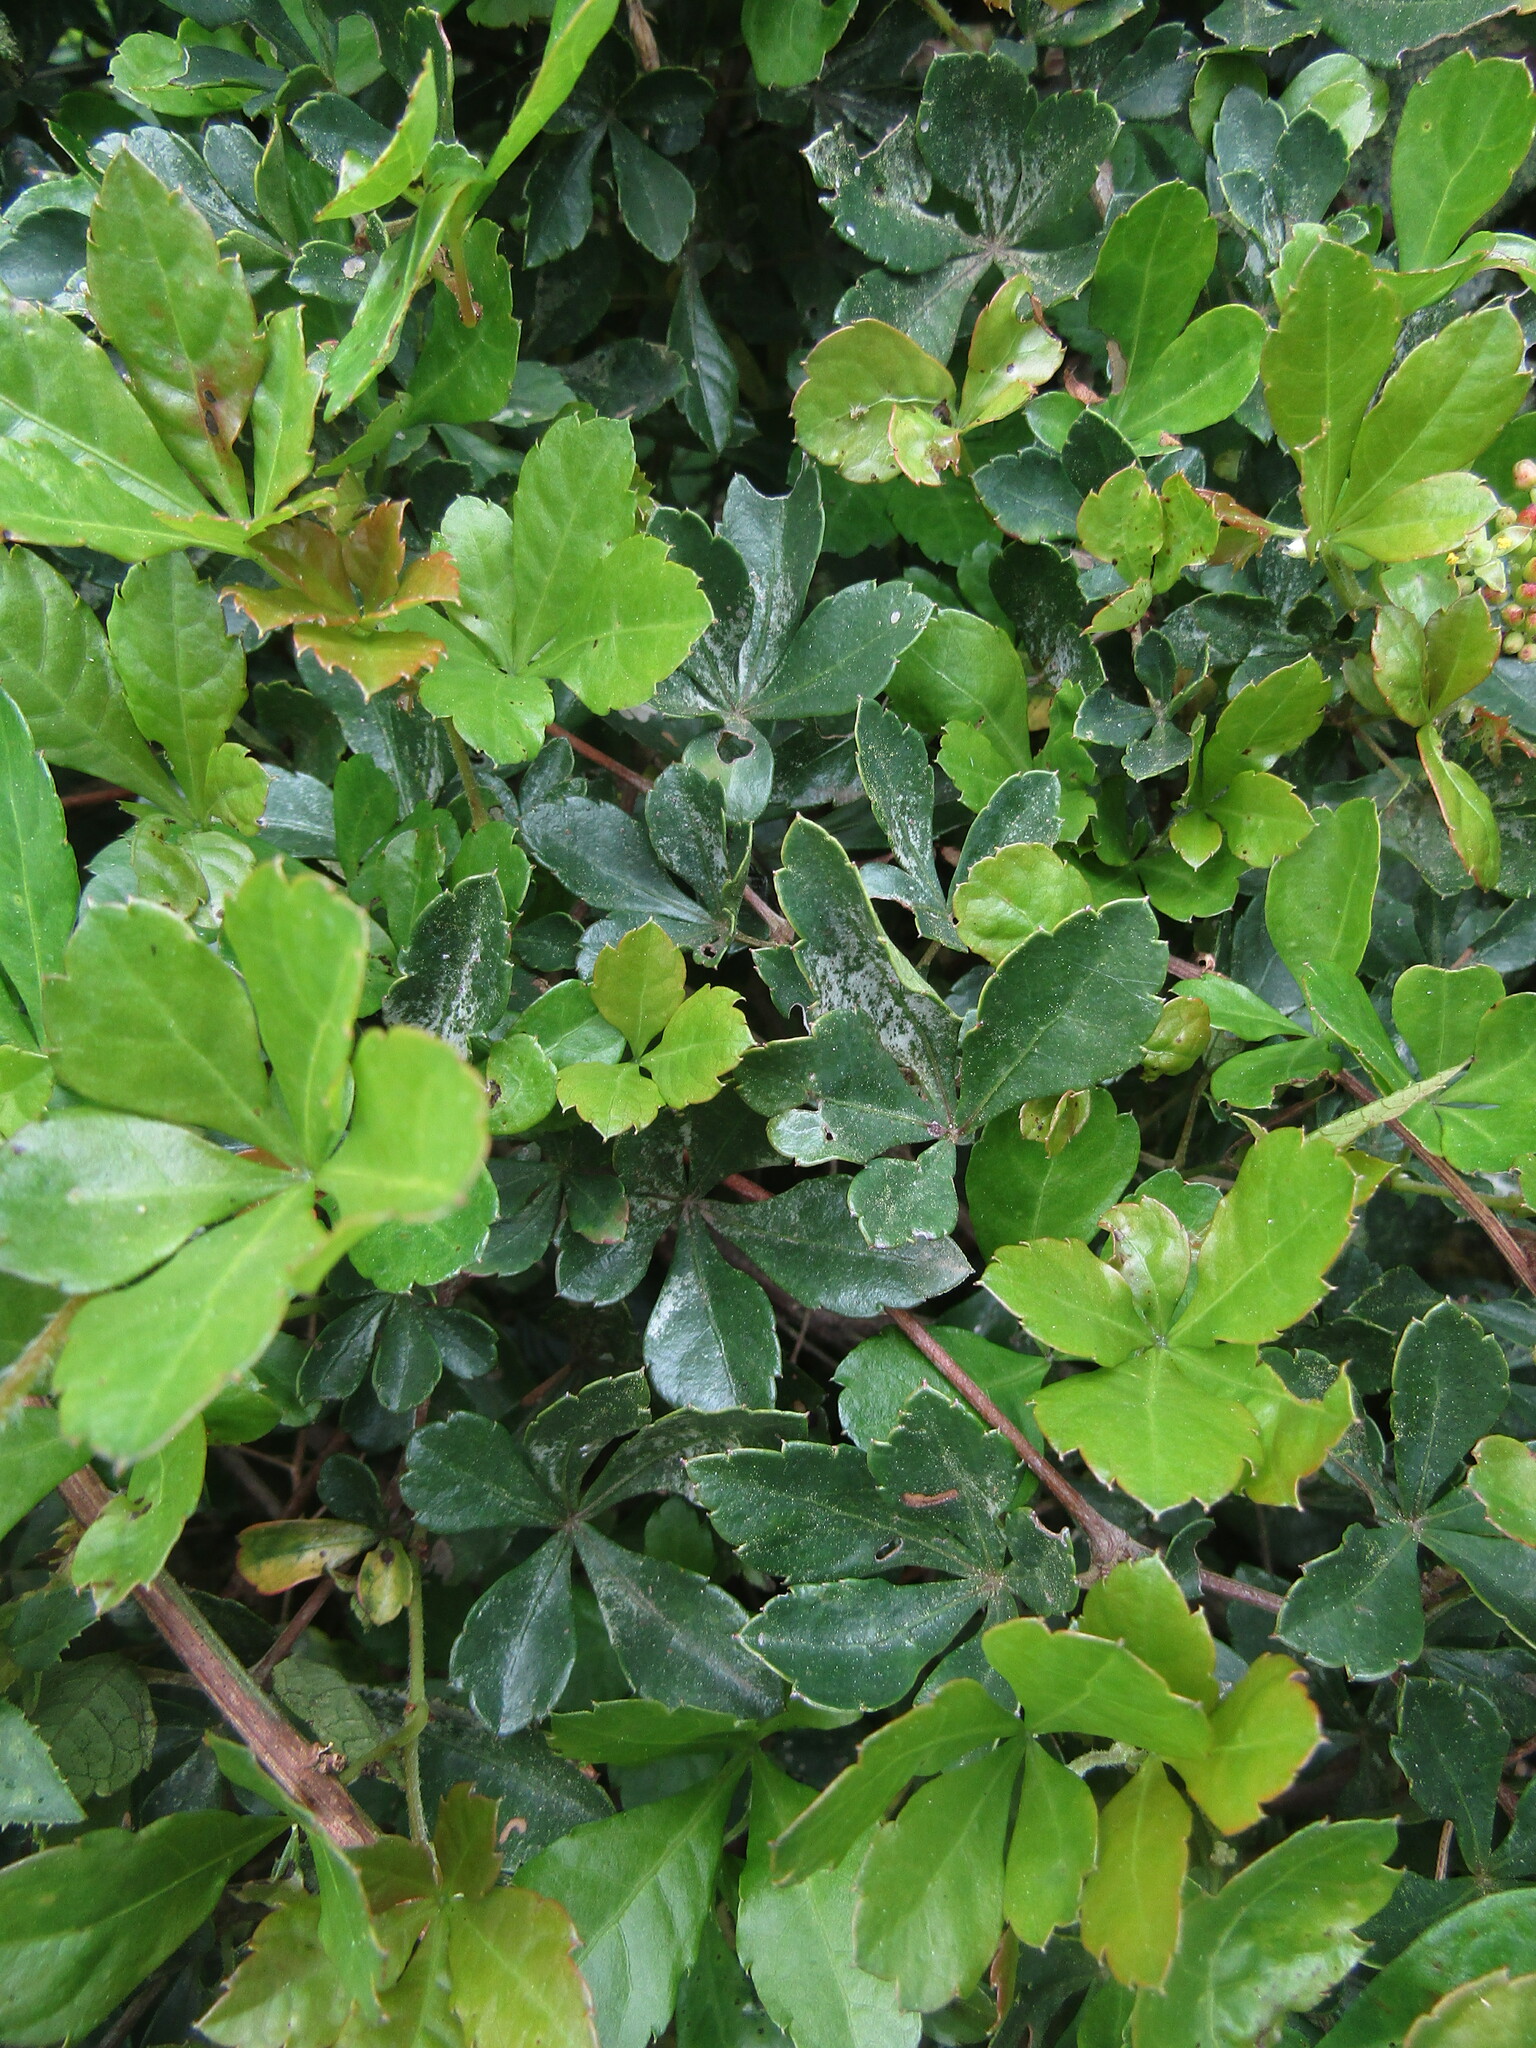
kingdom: Plantae
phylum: Tracheophyta
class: Magnoliopsida
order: Vitales
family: Vitaceae
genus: Clematicissus
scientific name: Clematicissus striata
